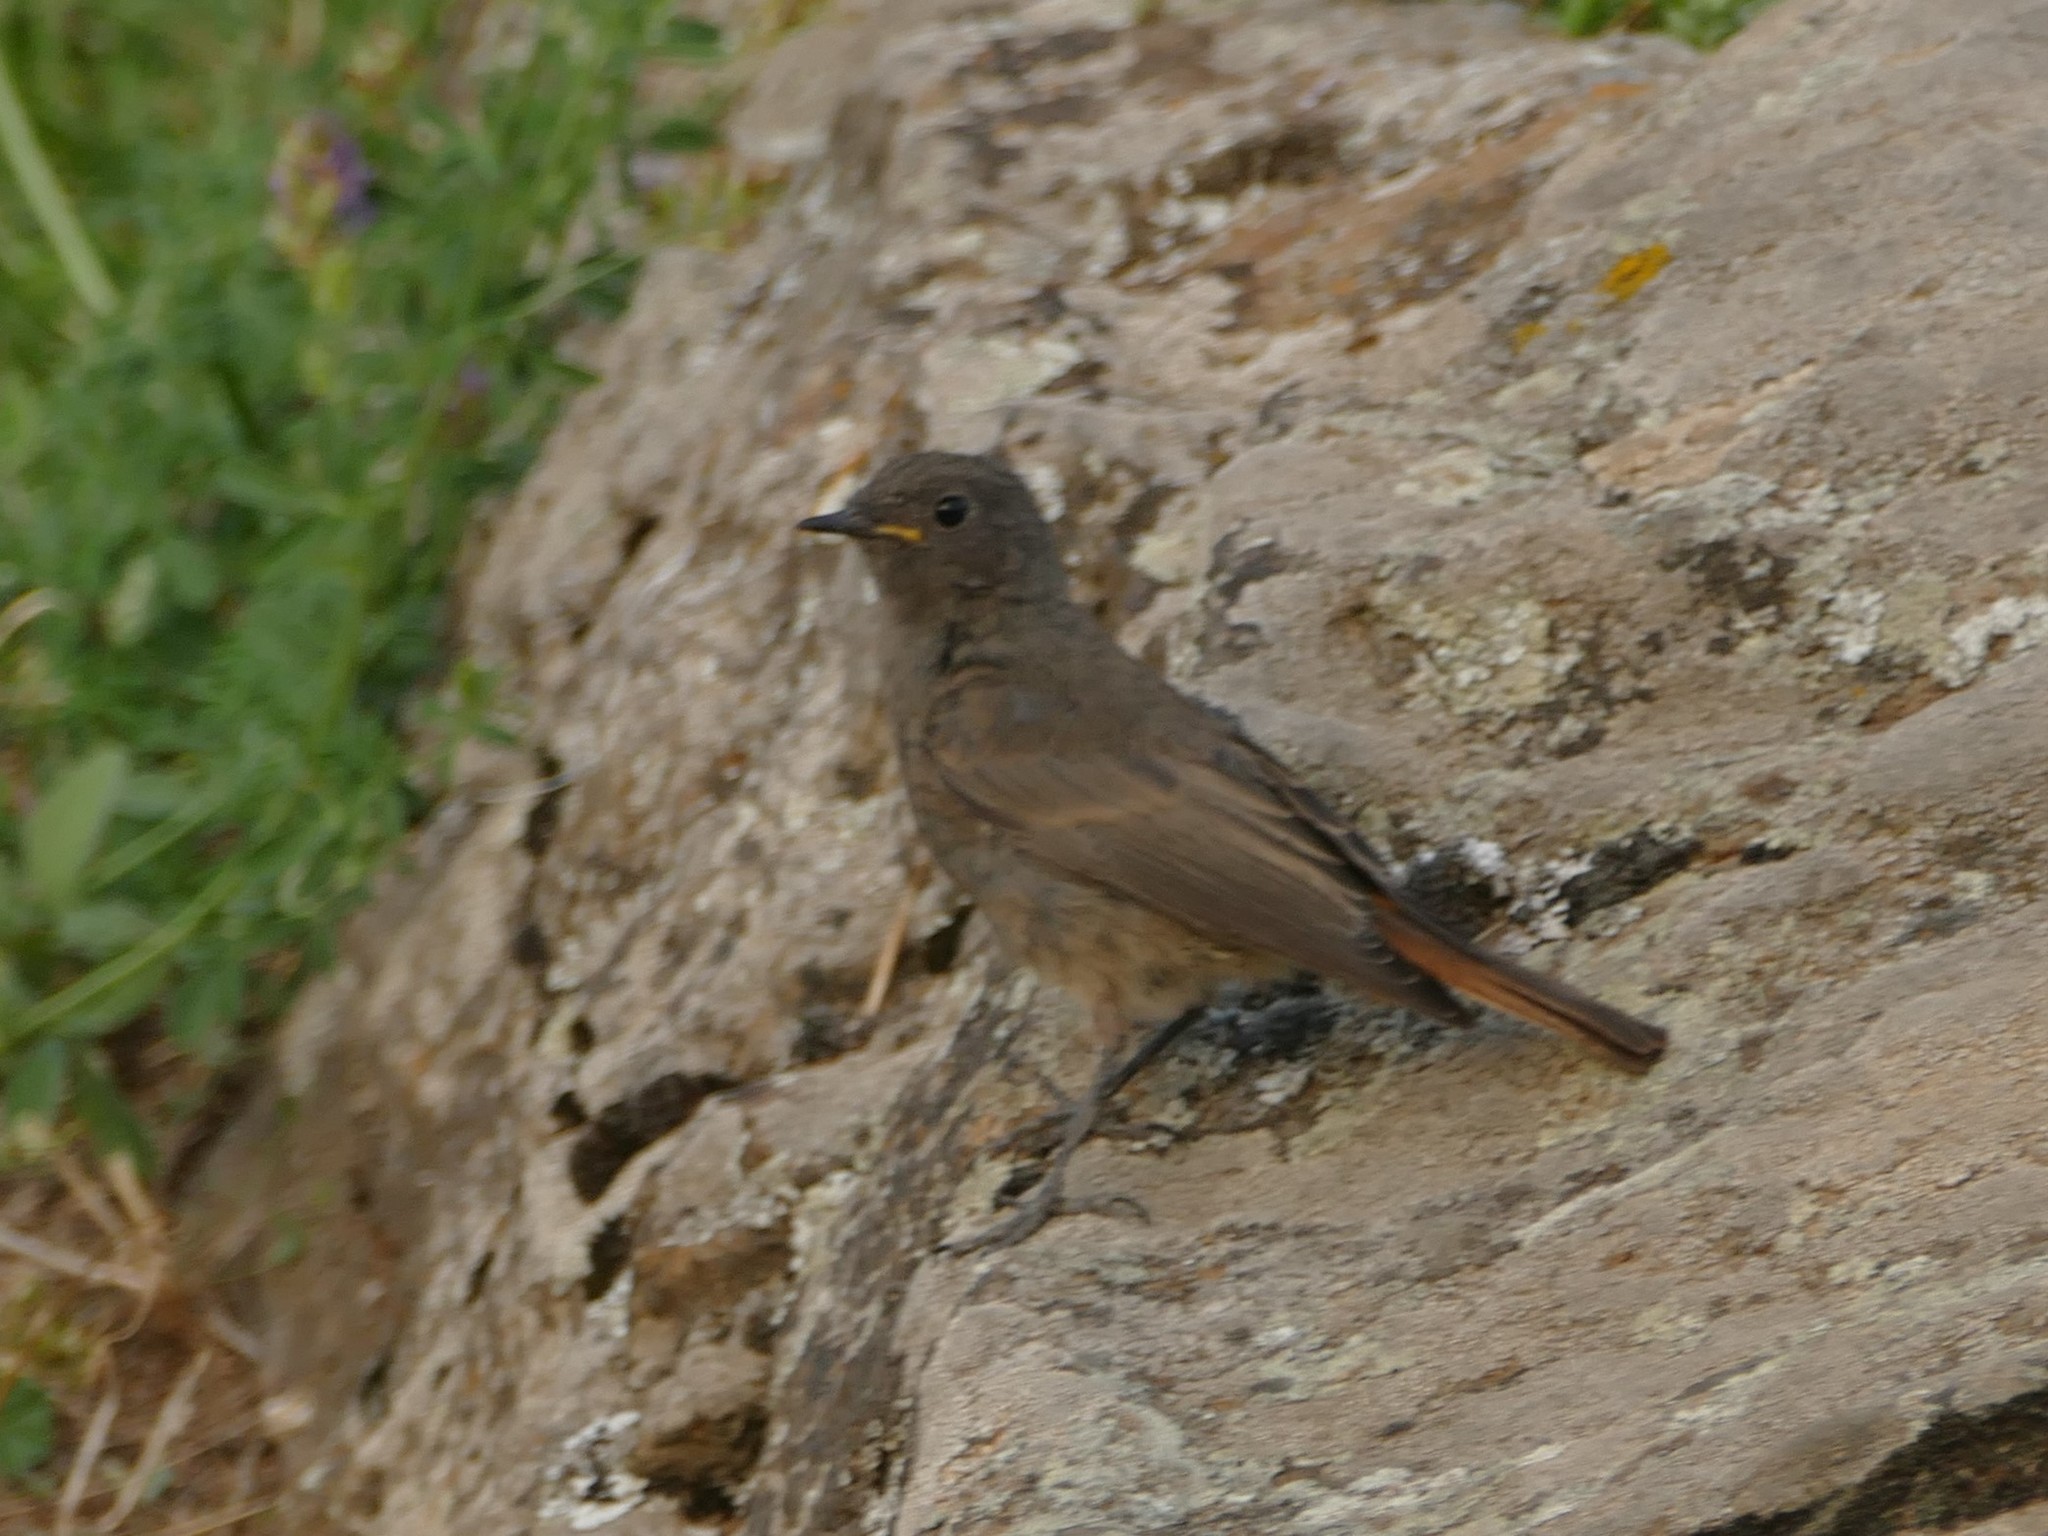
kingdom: Animalia
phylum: Chordata
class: Aves
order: Passeriformes
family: Muscicapidae
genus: Phoenicurus
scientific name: Phoenicurus ochruros
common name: Black redstart
